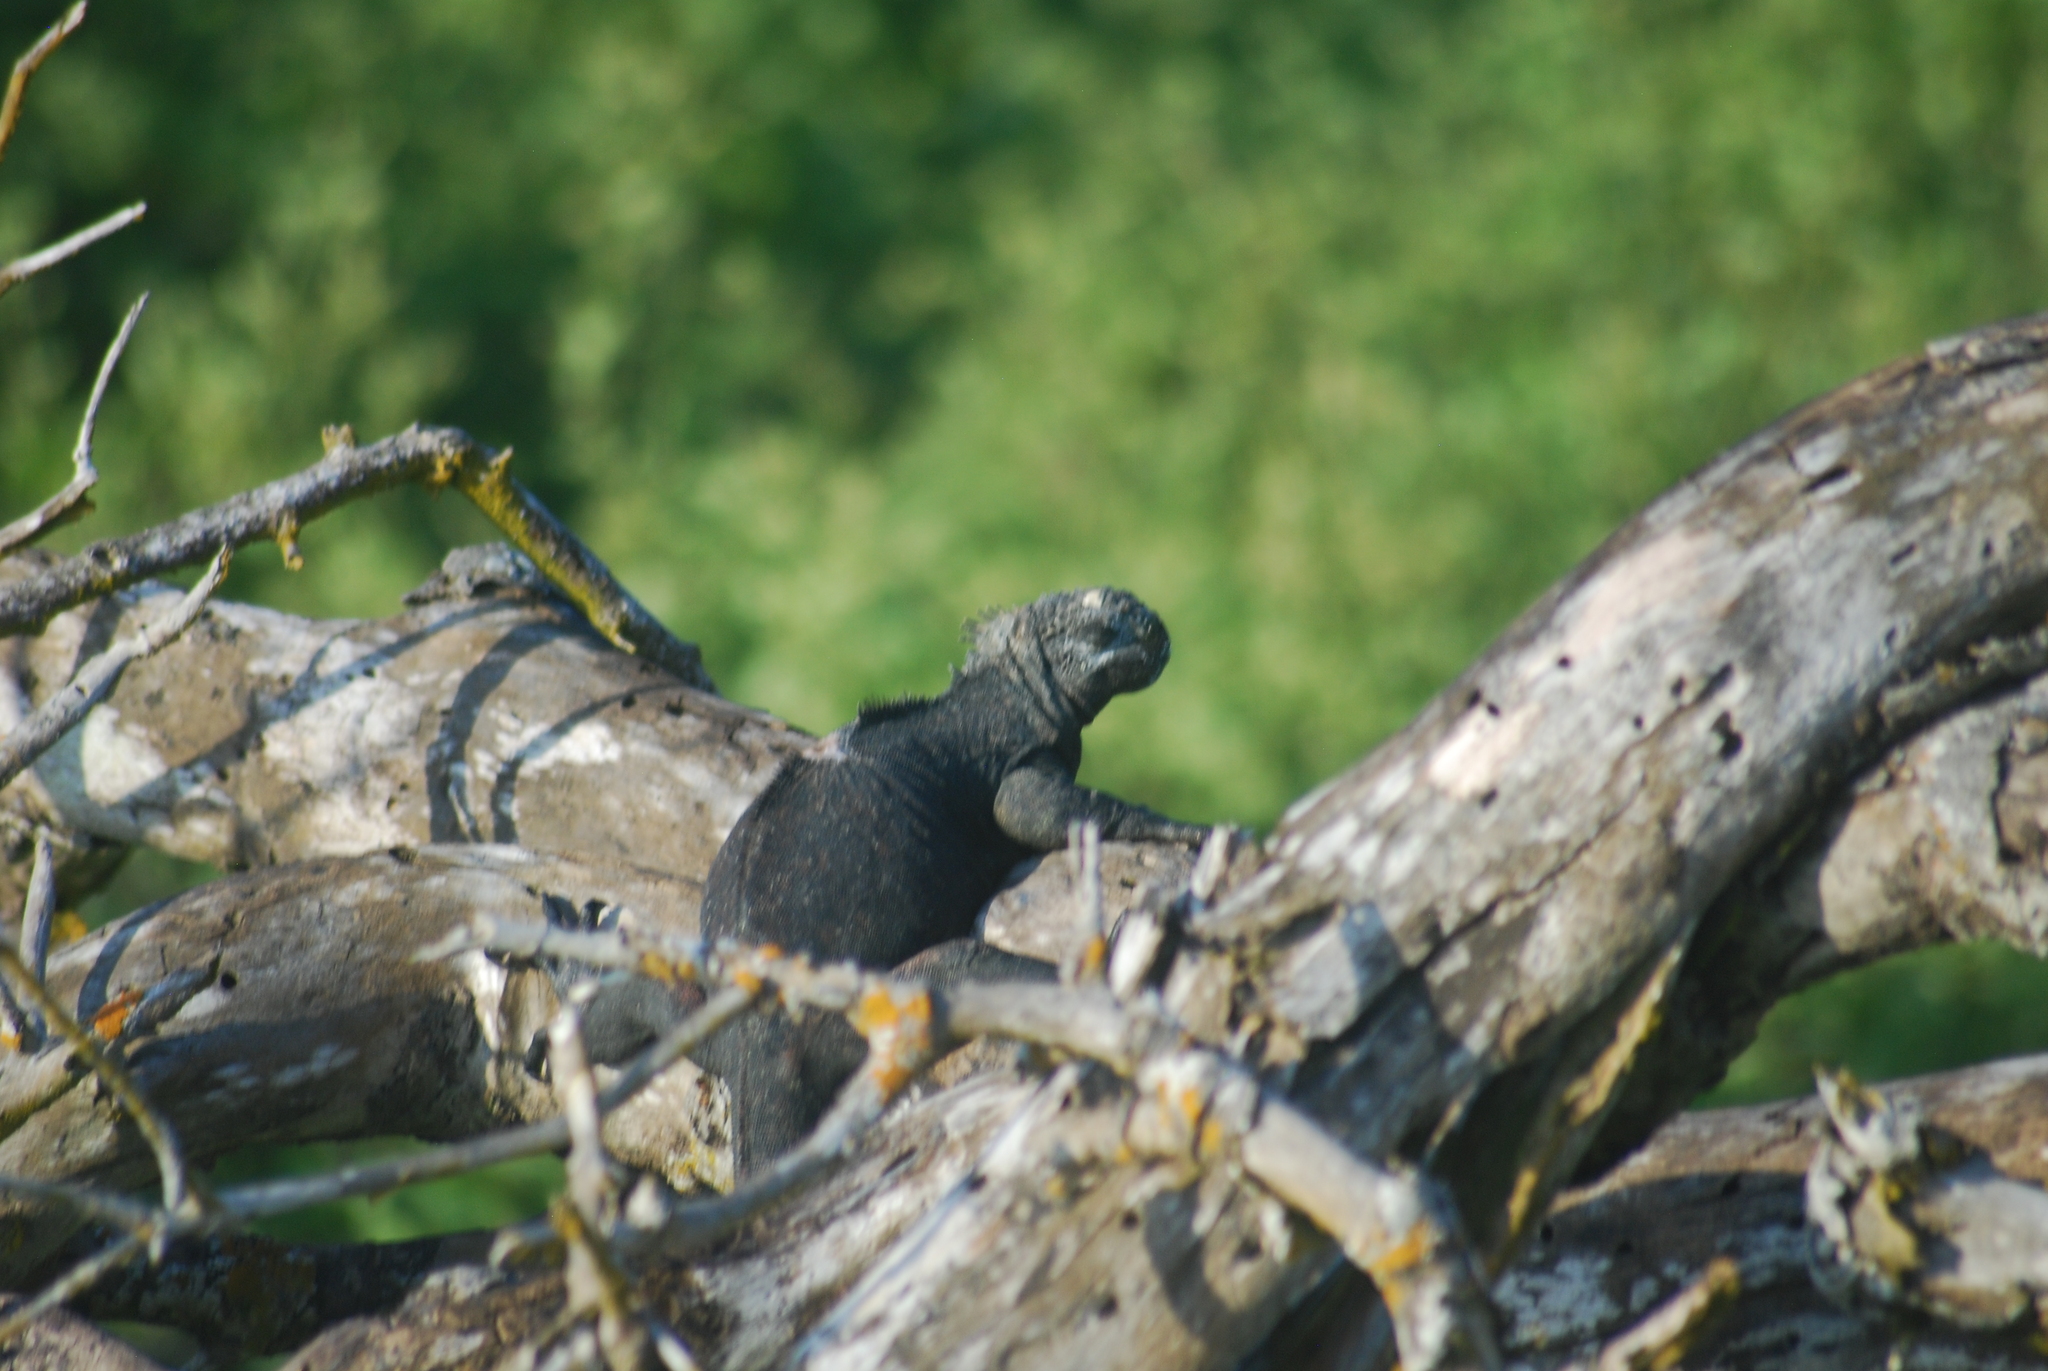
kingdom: Animalia
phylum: Chordata
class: Squamata
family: Iguanidae
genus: Amblyrhynchus
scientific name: Amblyrhynchus cristatus
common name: Marine iguana
